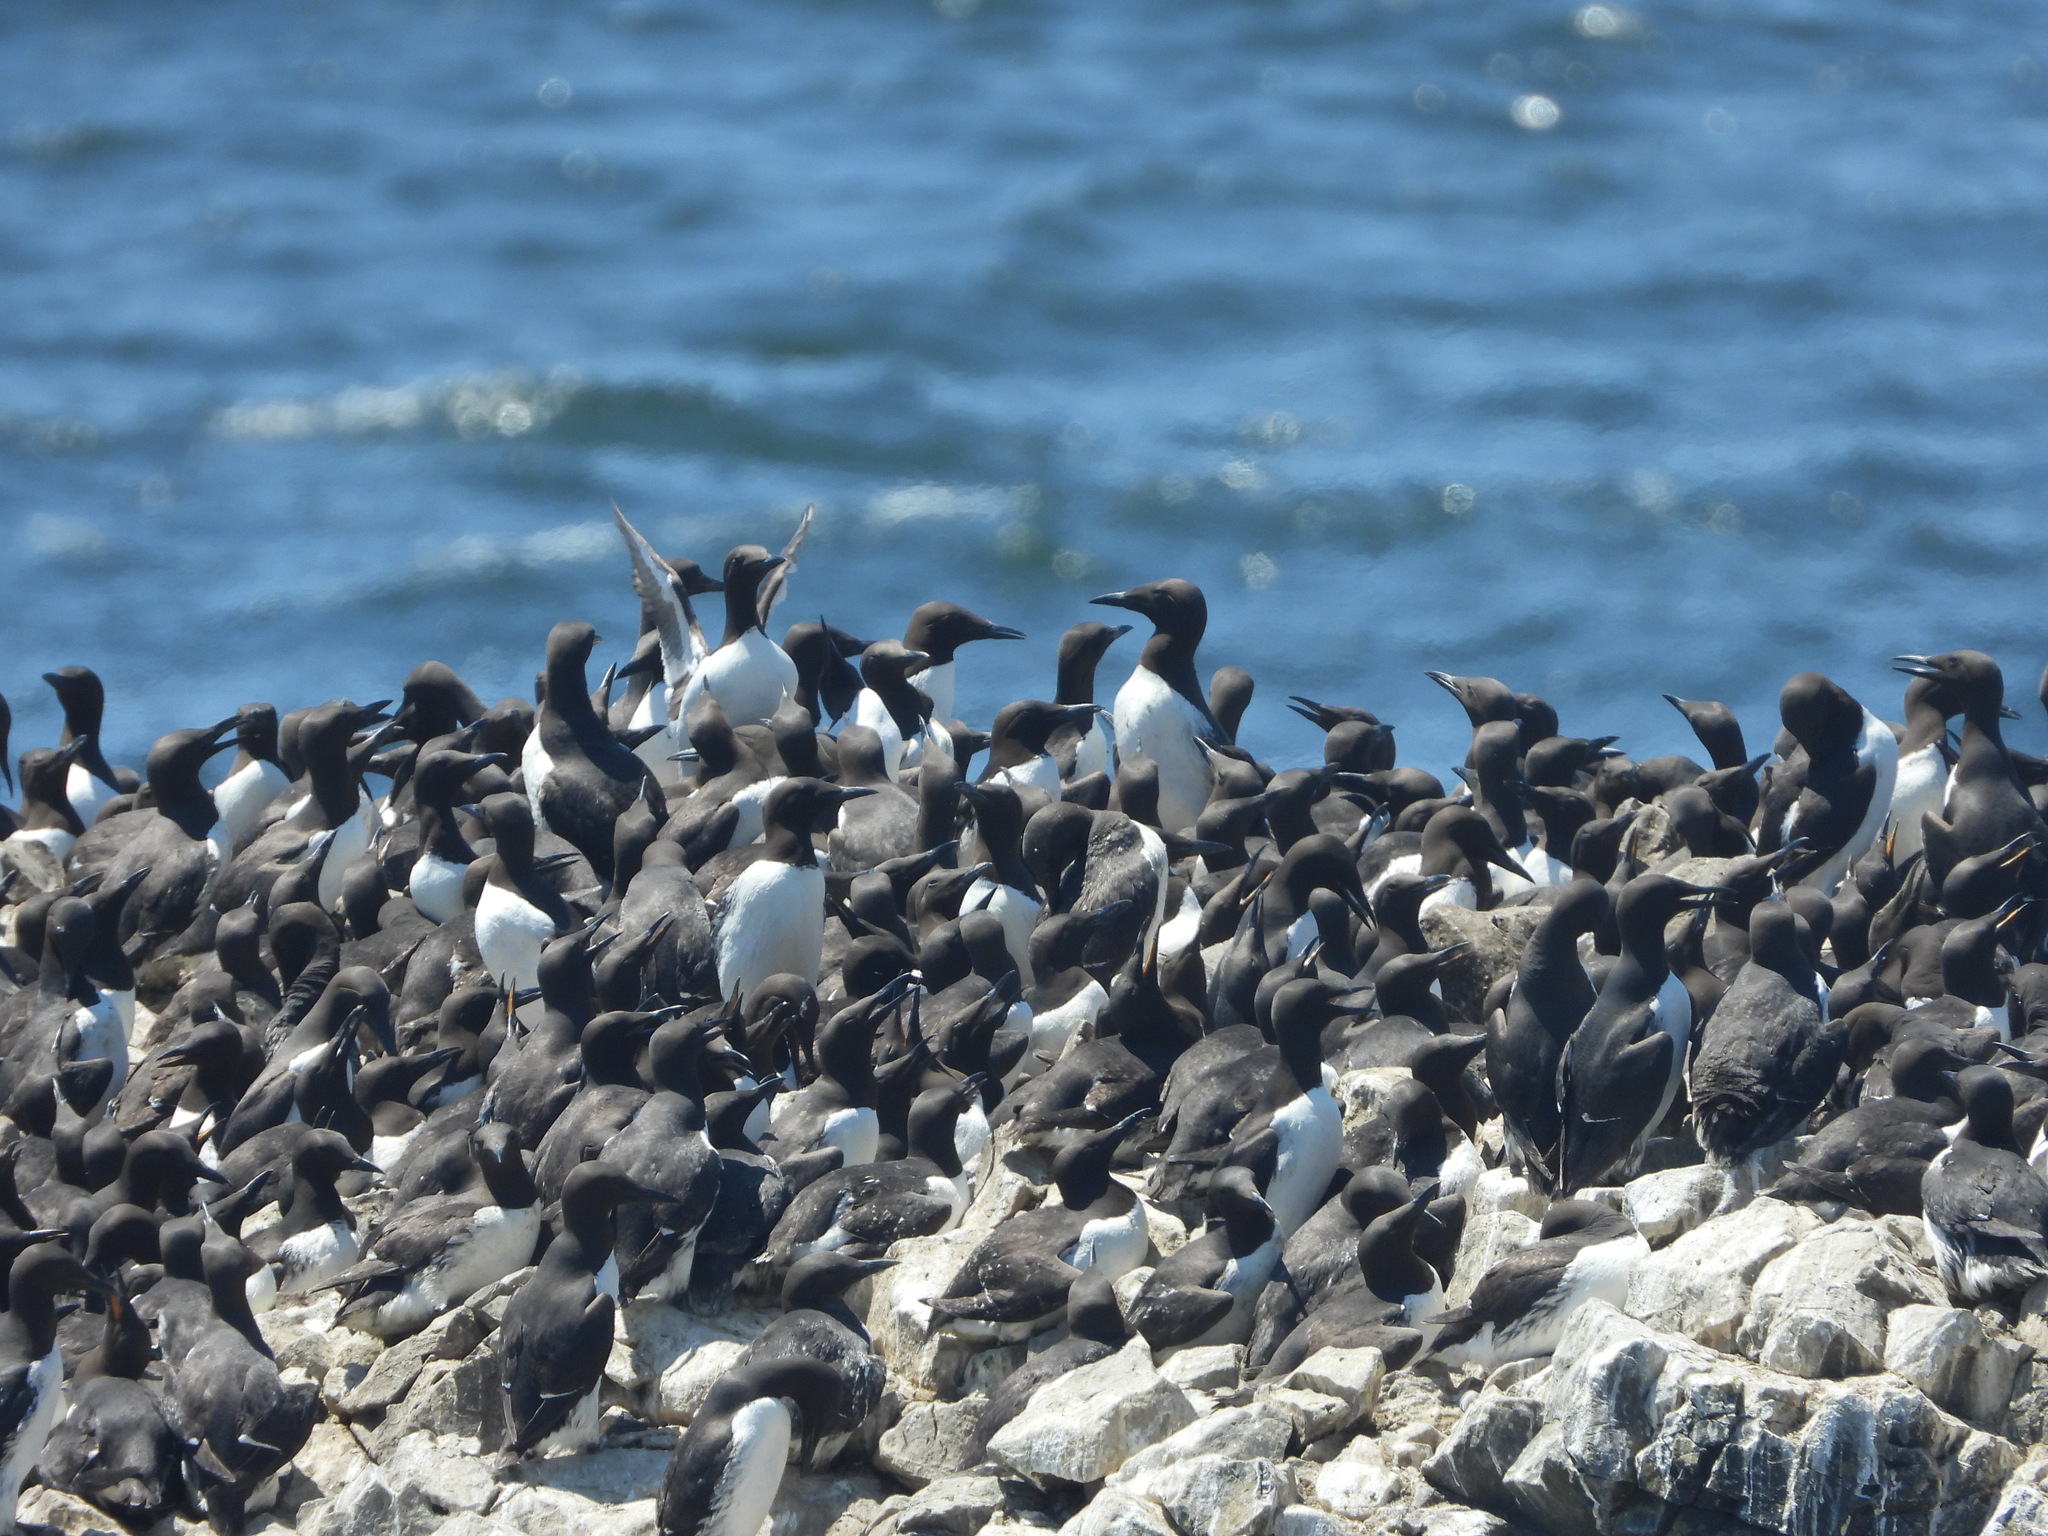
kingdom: Animalia
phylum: Chordata
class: Aves
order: Charadriiformes
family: Alcidae
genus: Uria
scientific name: Uria aalge
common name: Common murre
